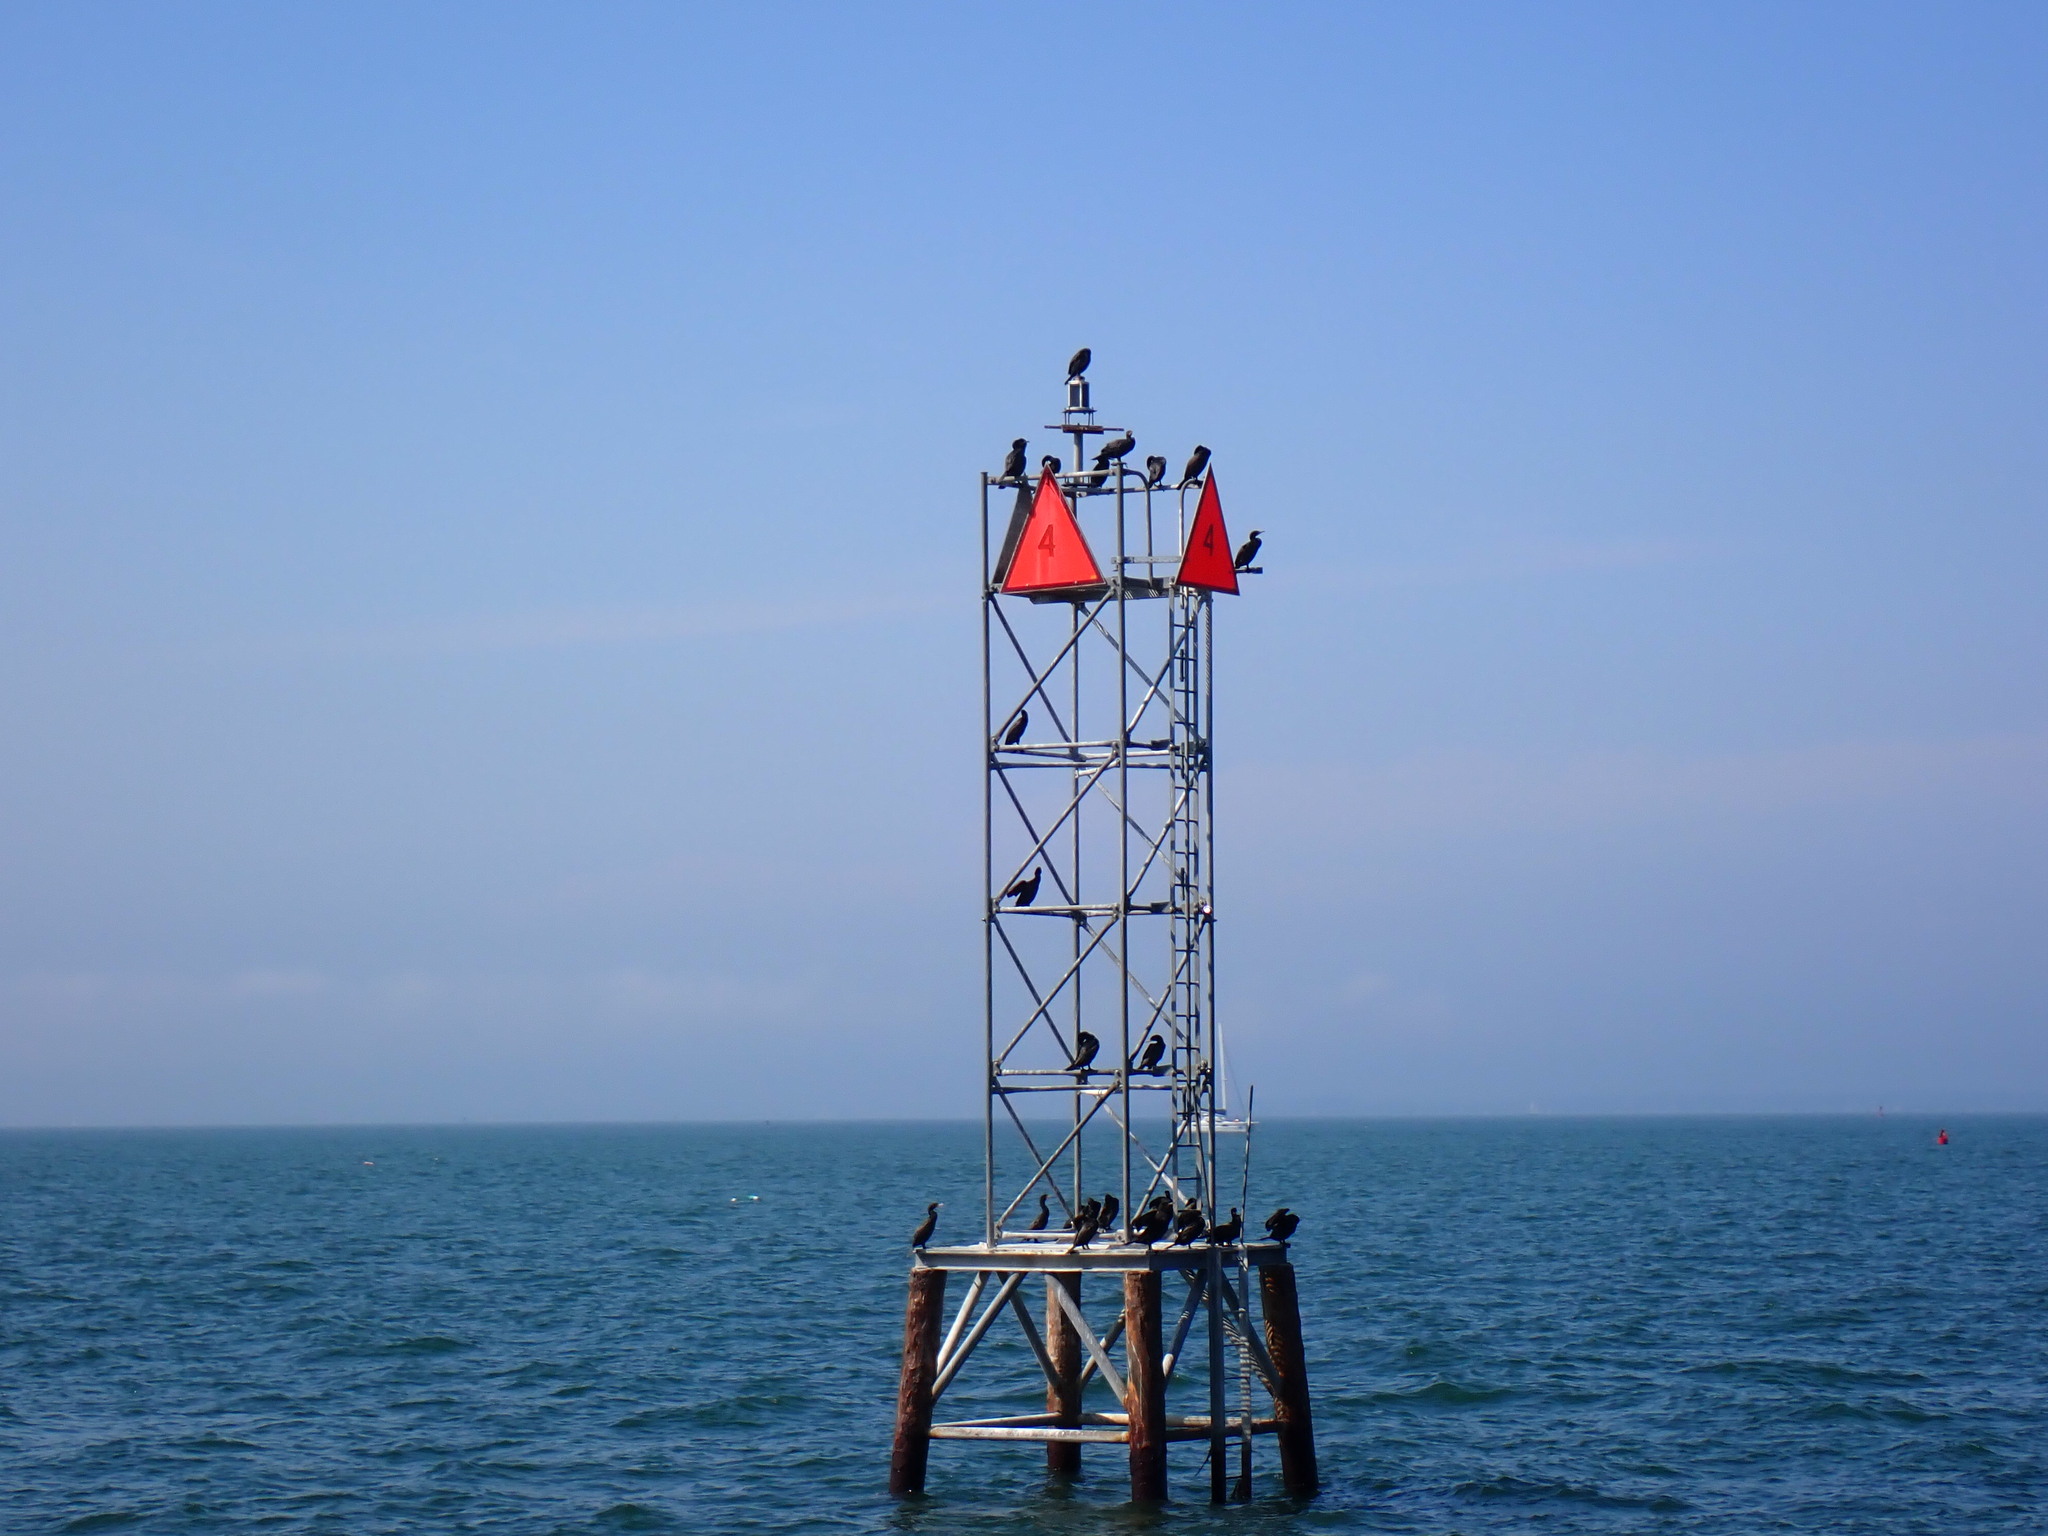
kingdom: Animalia
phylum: Chordata
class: Aves
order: Suliformes
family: Phalacrocoracidae
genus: Phalacrocorax
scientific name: Phalacrocorax auritus
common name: Double-crested cormorant
